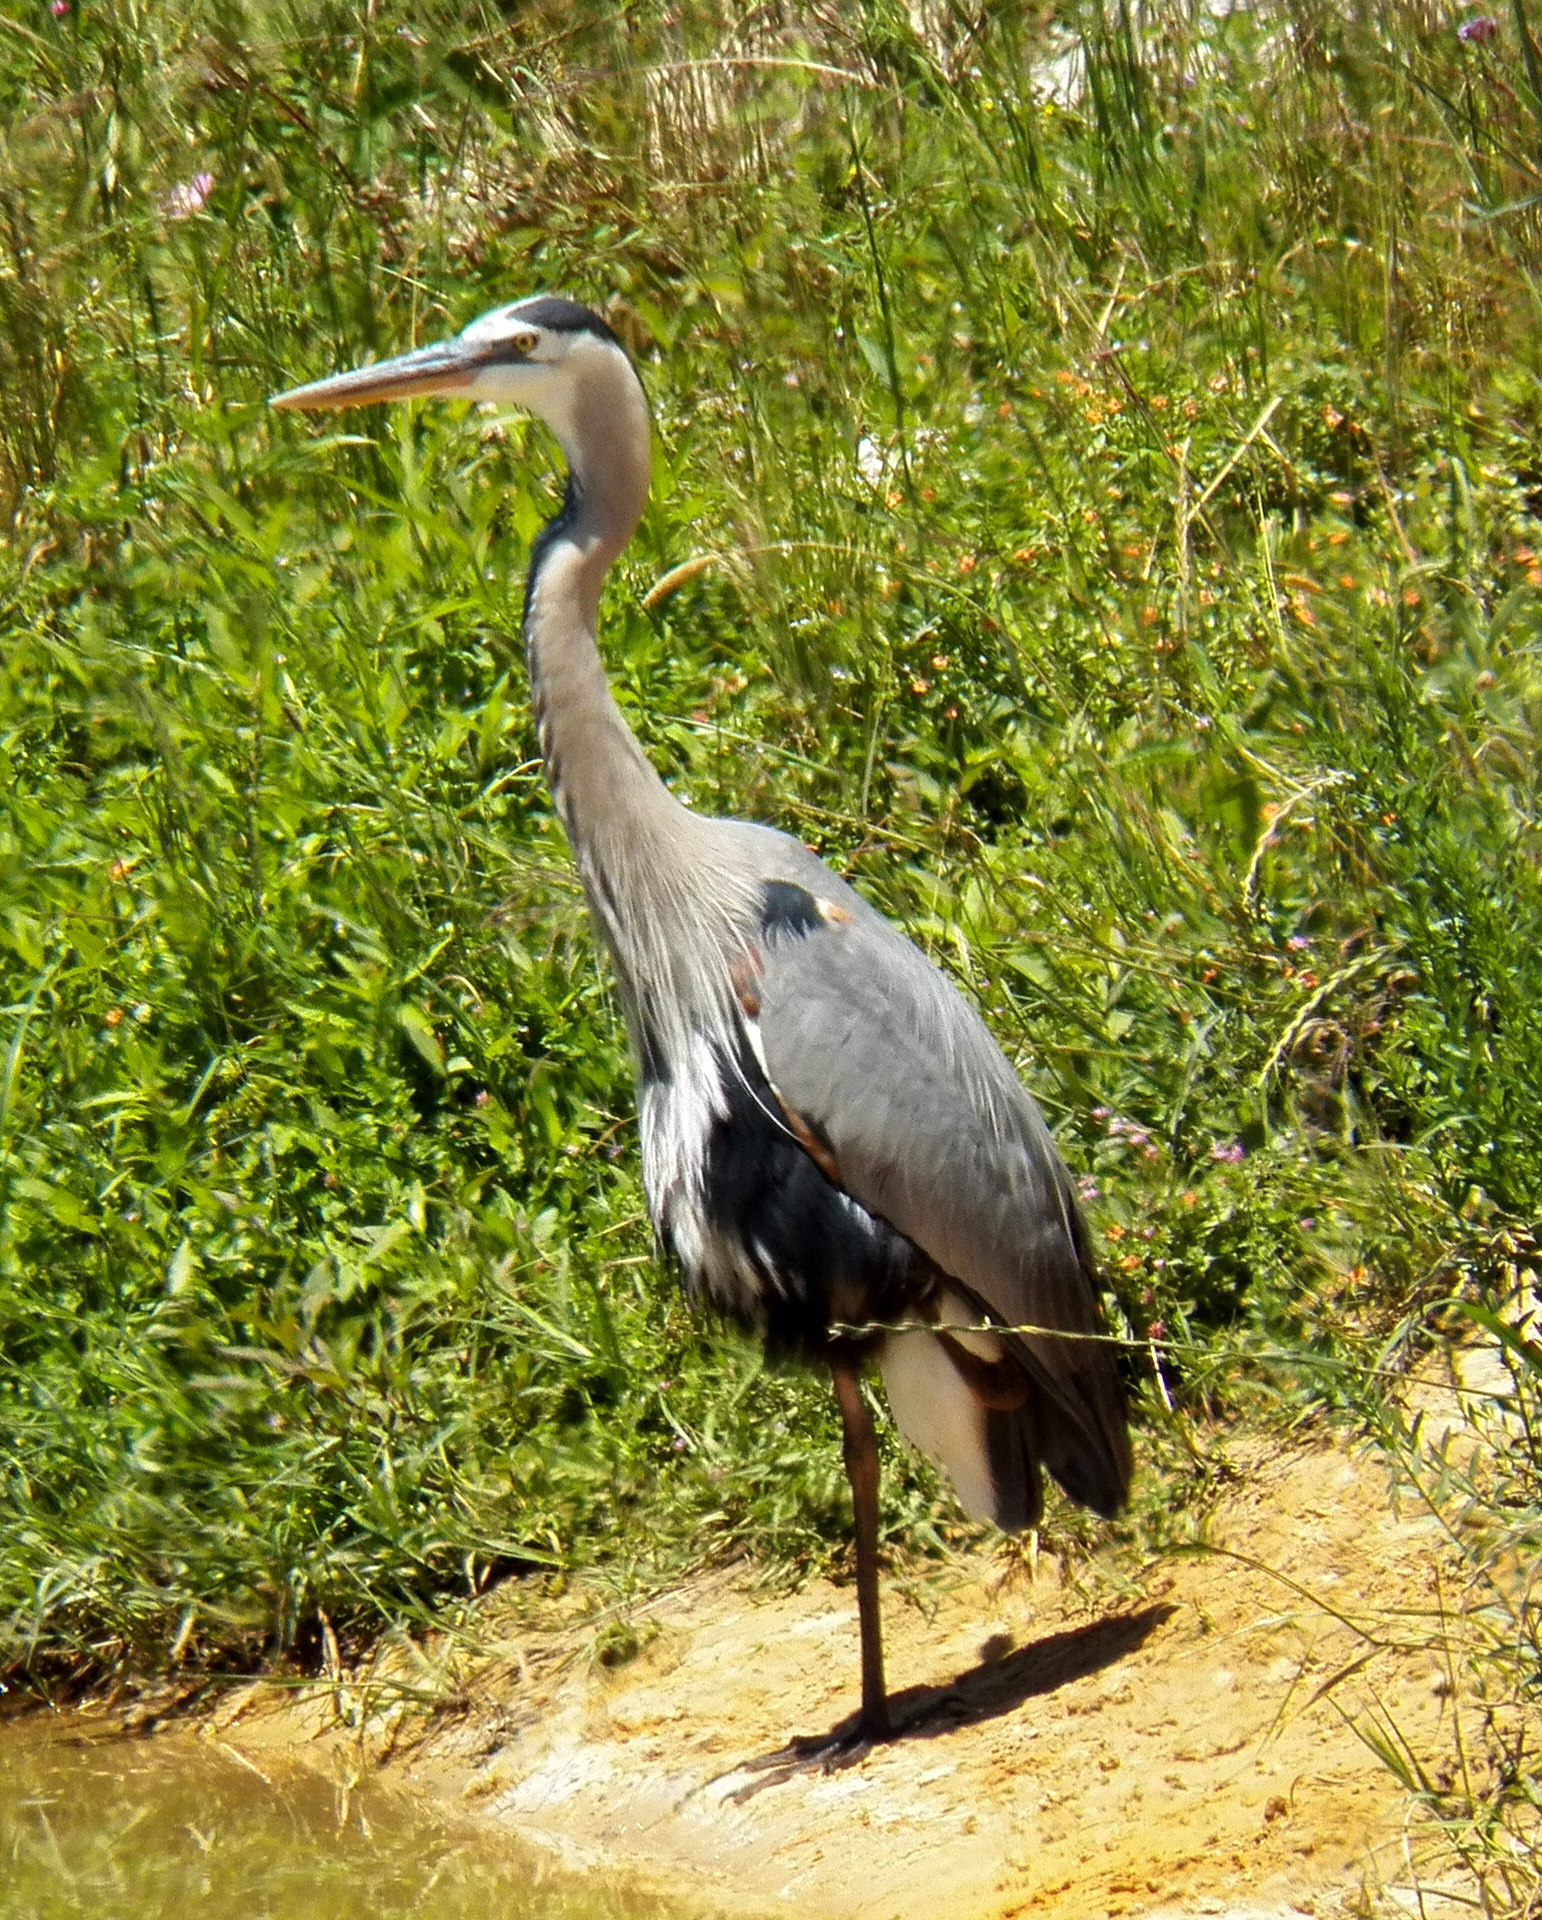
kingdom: Animalia
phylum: Chordata
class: Aves
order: Pelecaniformes
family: Ardeidae
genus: Ardea
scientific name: Ardea herodias
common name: Great blue heron
